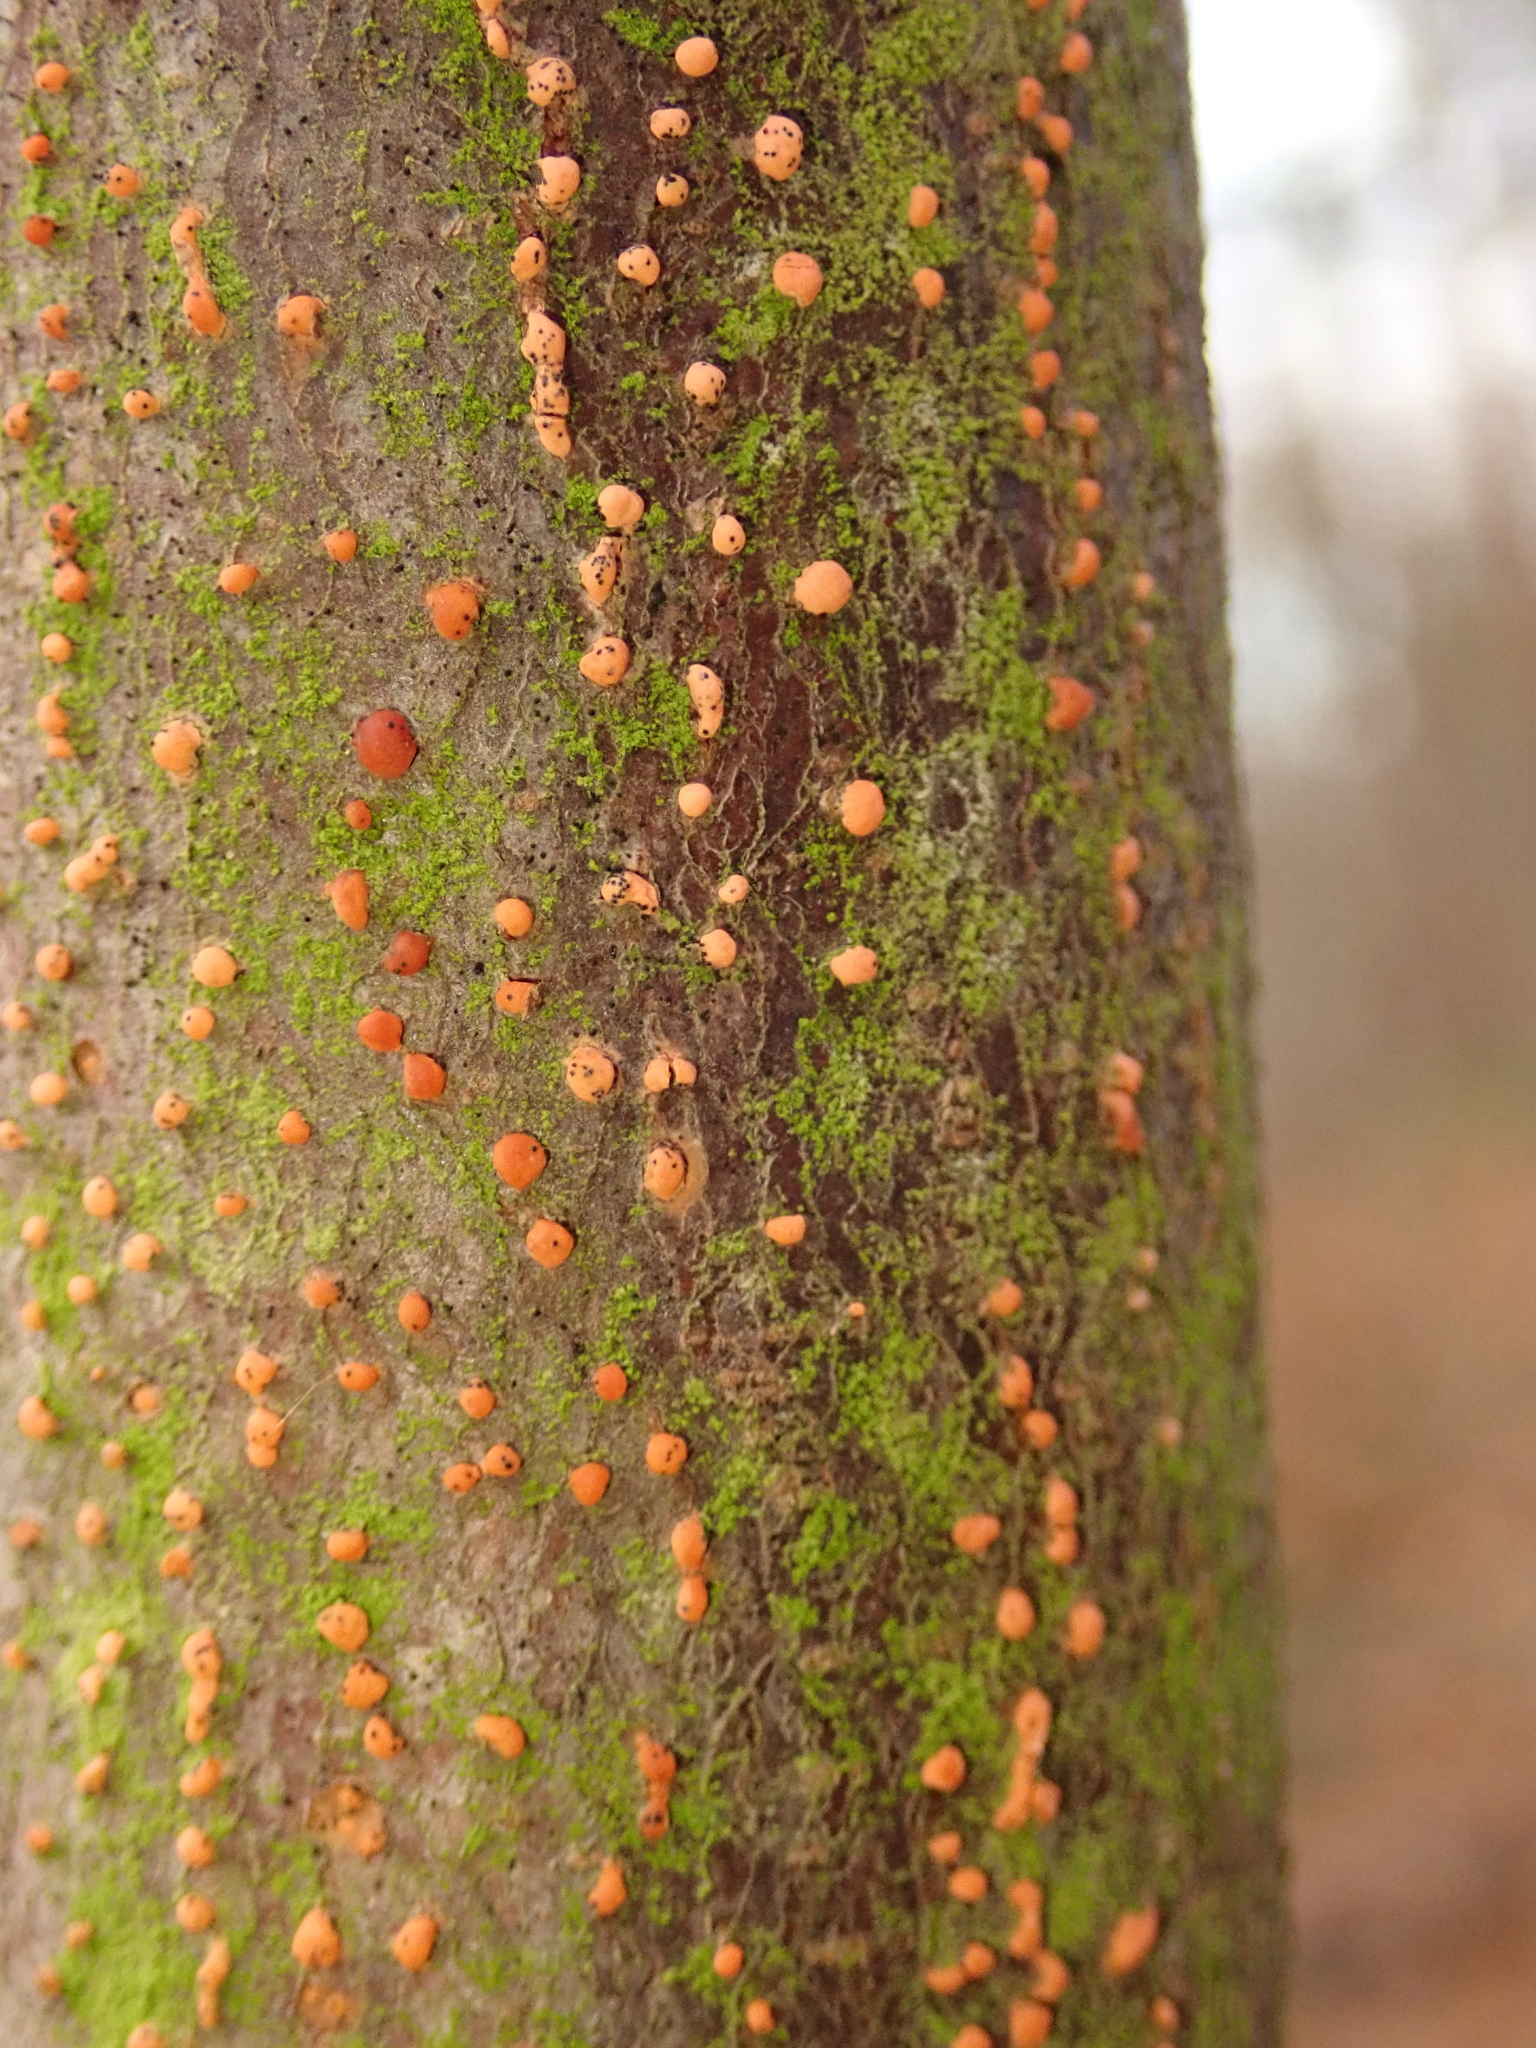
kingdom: Fungi
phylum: Ascomycota
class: Sordariomycetes
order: Hypocreales
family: Nectriaceae
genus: Nectria
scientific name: Nectria cinnabarina
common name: Coral spot
